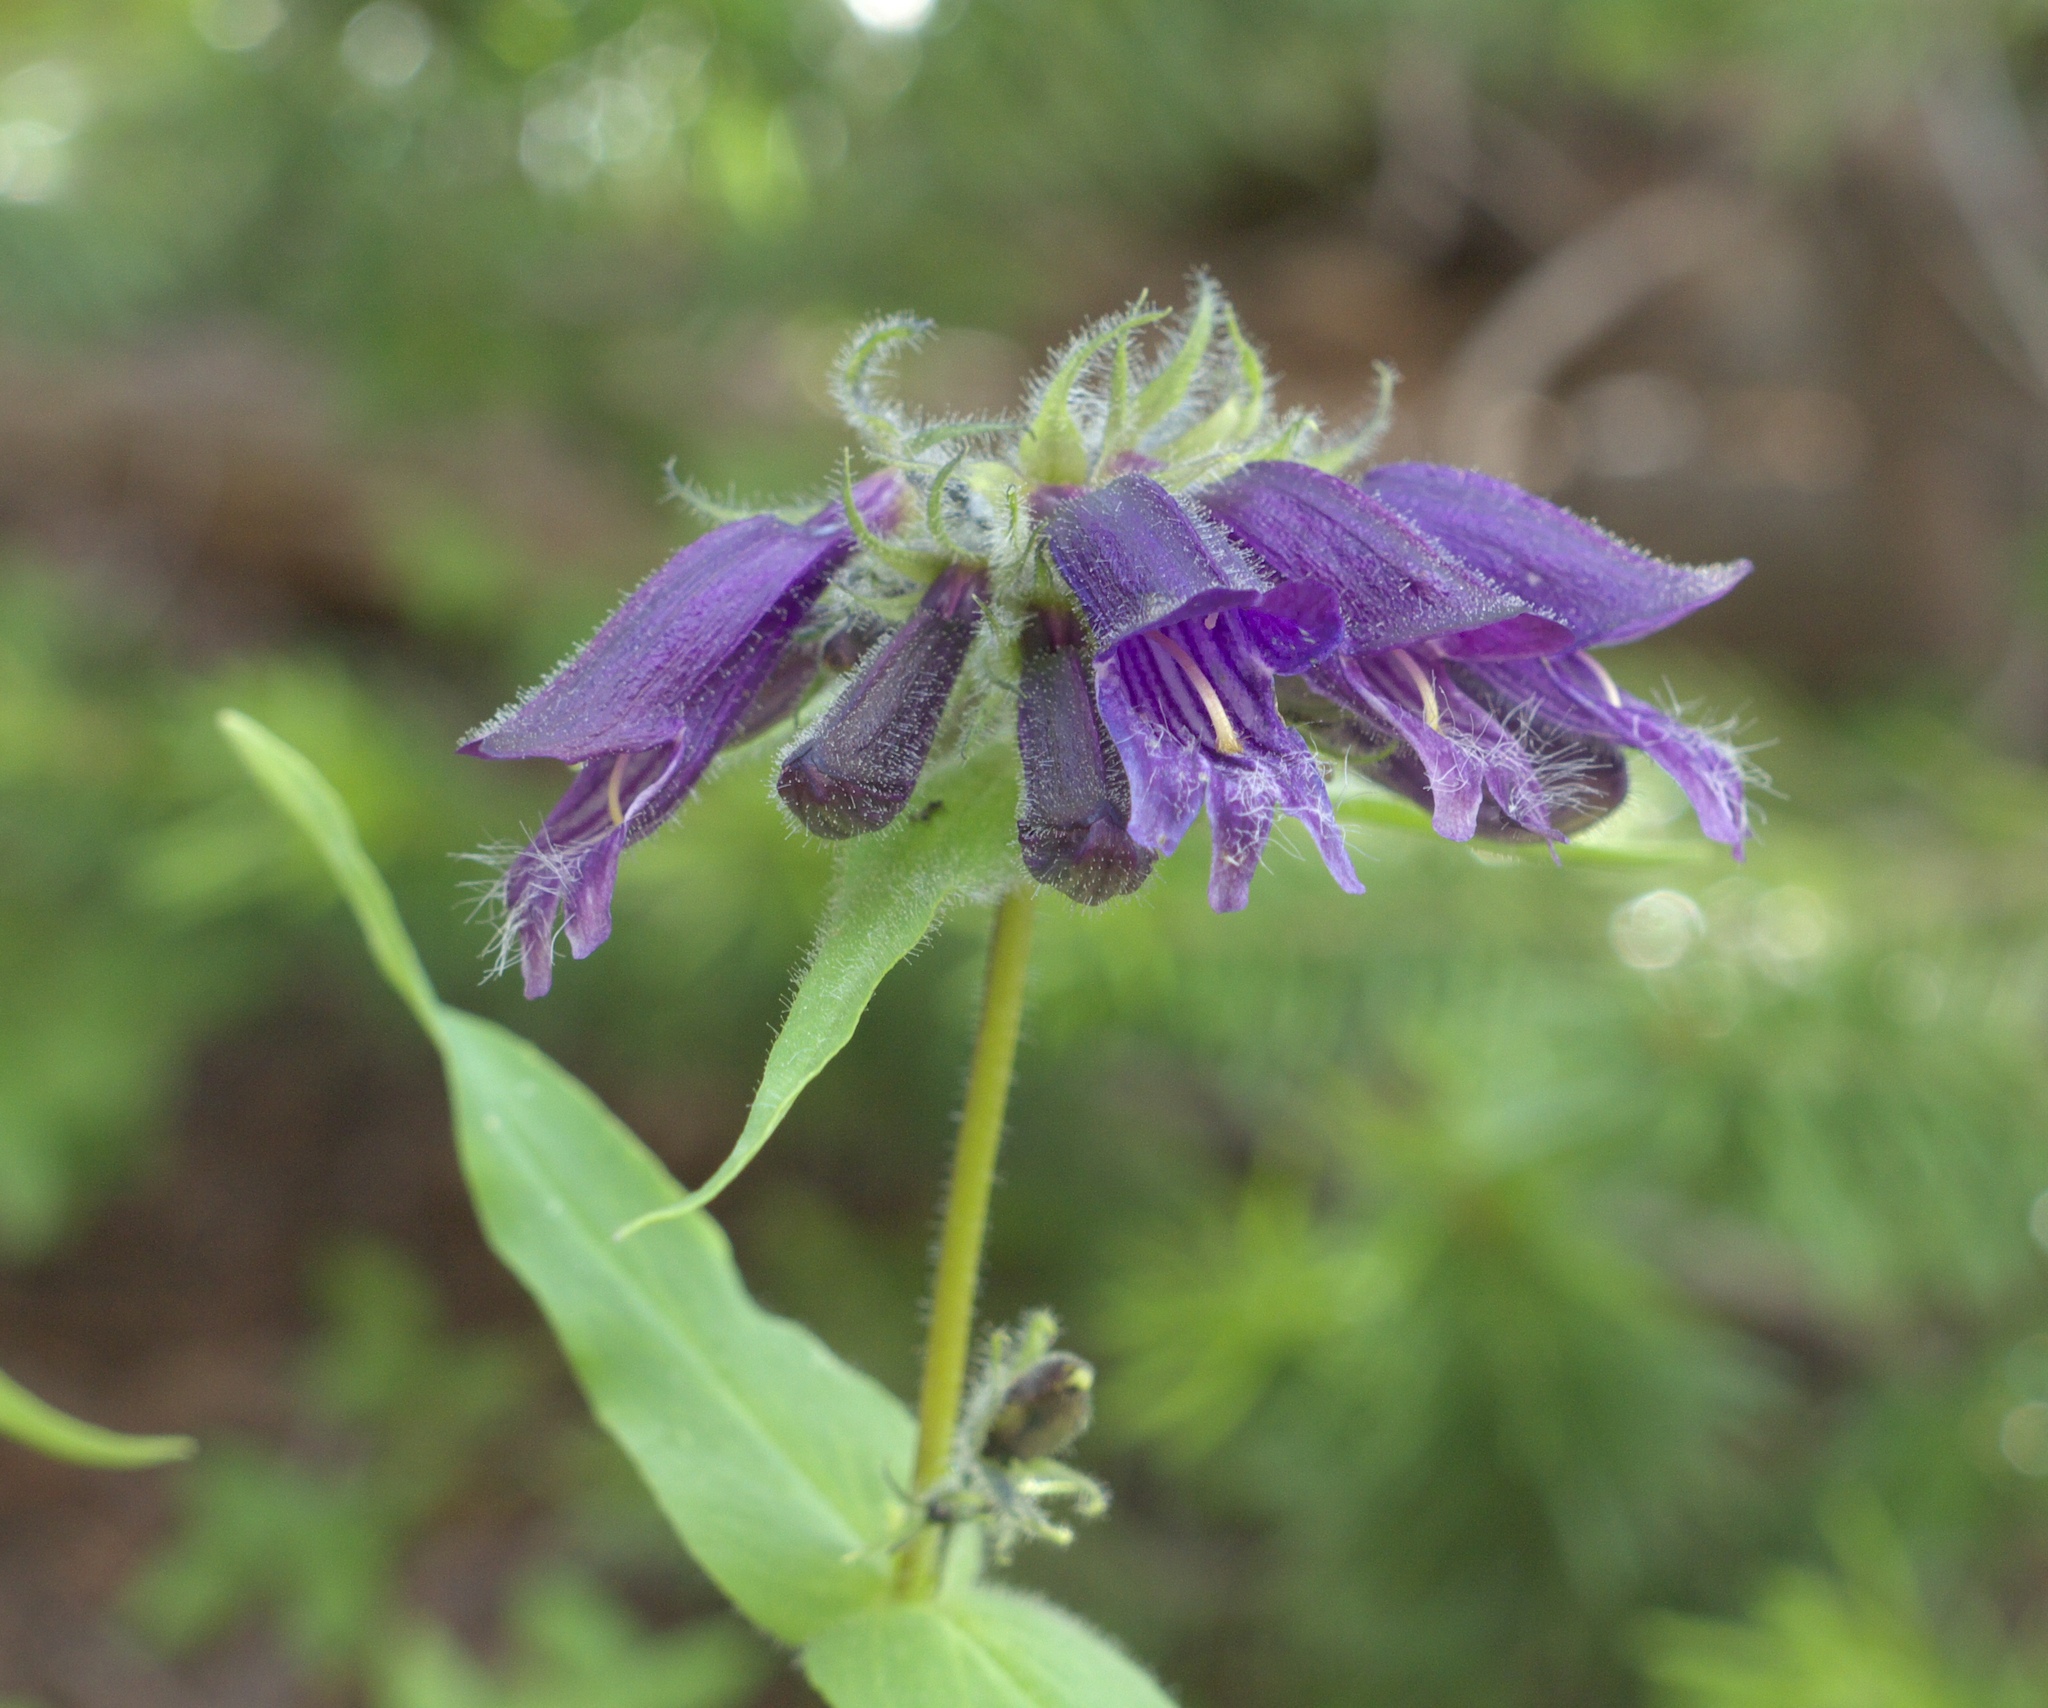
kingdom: Plantae
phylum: Tracheophyta
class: Magnoliopsida
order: Lamiales
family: Plantaginaceae
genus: Penstemon
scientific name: Penstemon whippleanus
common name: Whipple's penstemon
